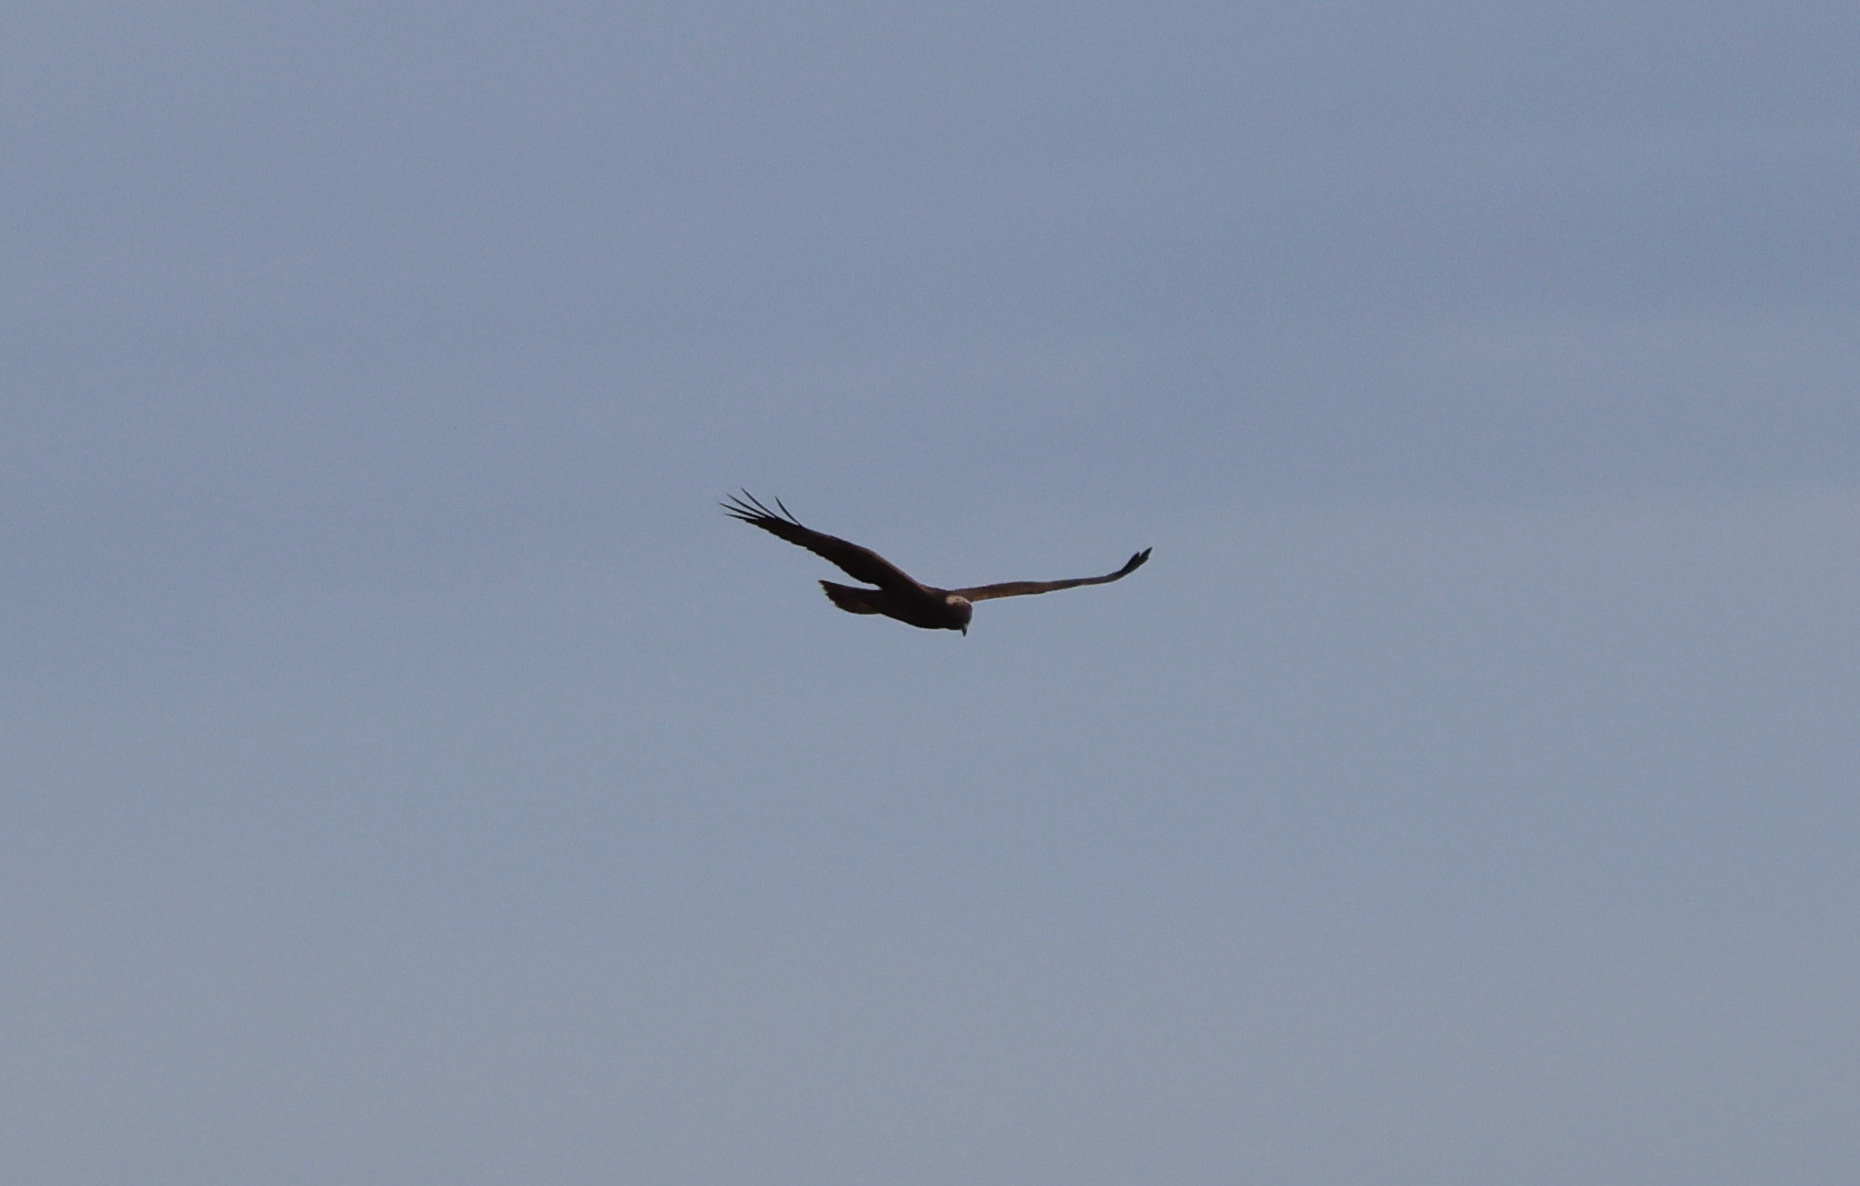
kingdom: Animalia
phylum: Chordata
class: Aves
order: Accipitriformes
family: Accipitridae
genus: Circus
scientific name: Circus aeruginosus
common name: Western marsh harrier
